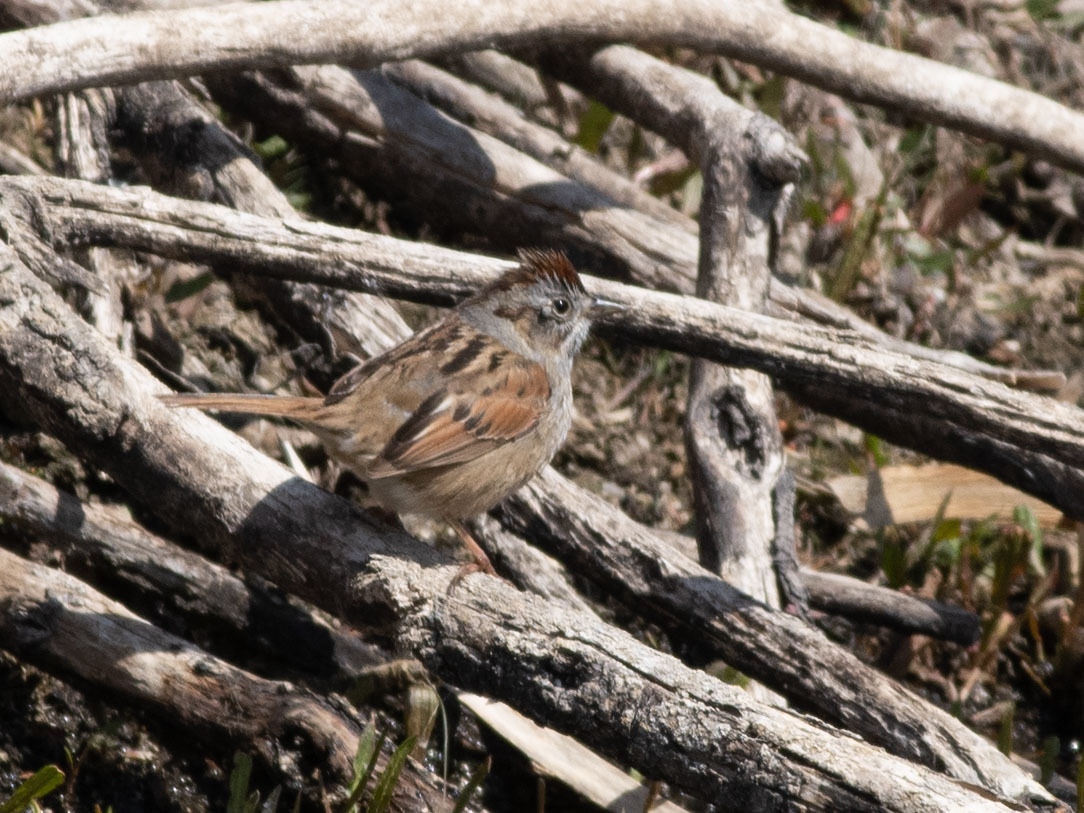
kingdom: Animalia
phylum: Chordata
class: Aves
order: Passeriformes
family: Passerellidae
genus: Melospiza
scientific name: Melospiza georgiana
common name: Swamp sparrow
